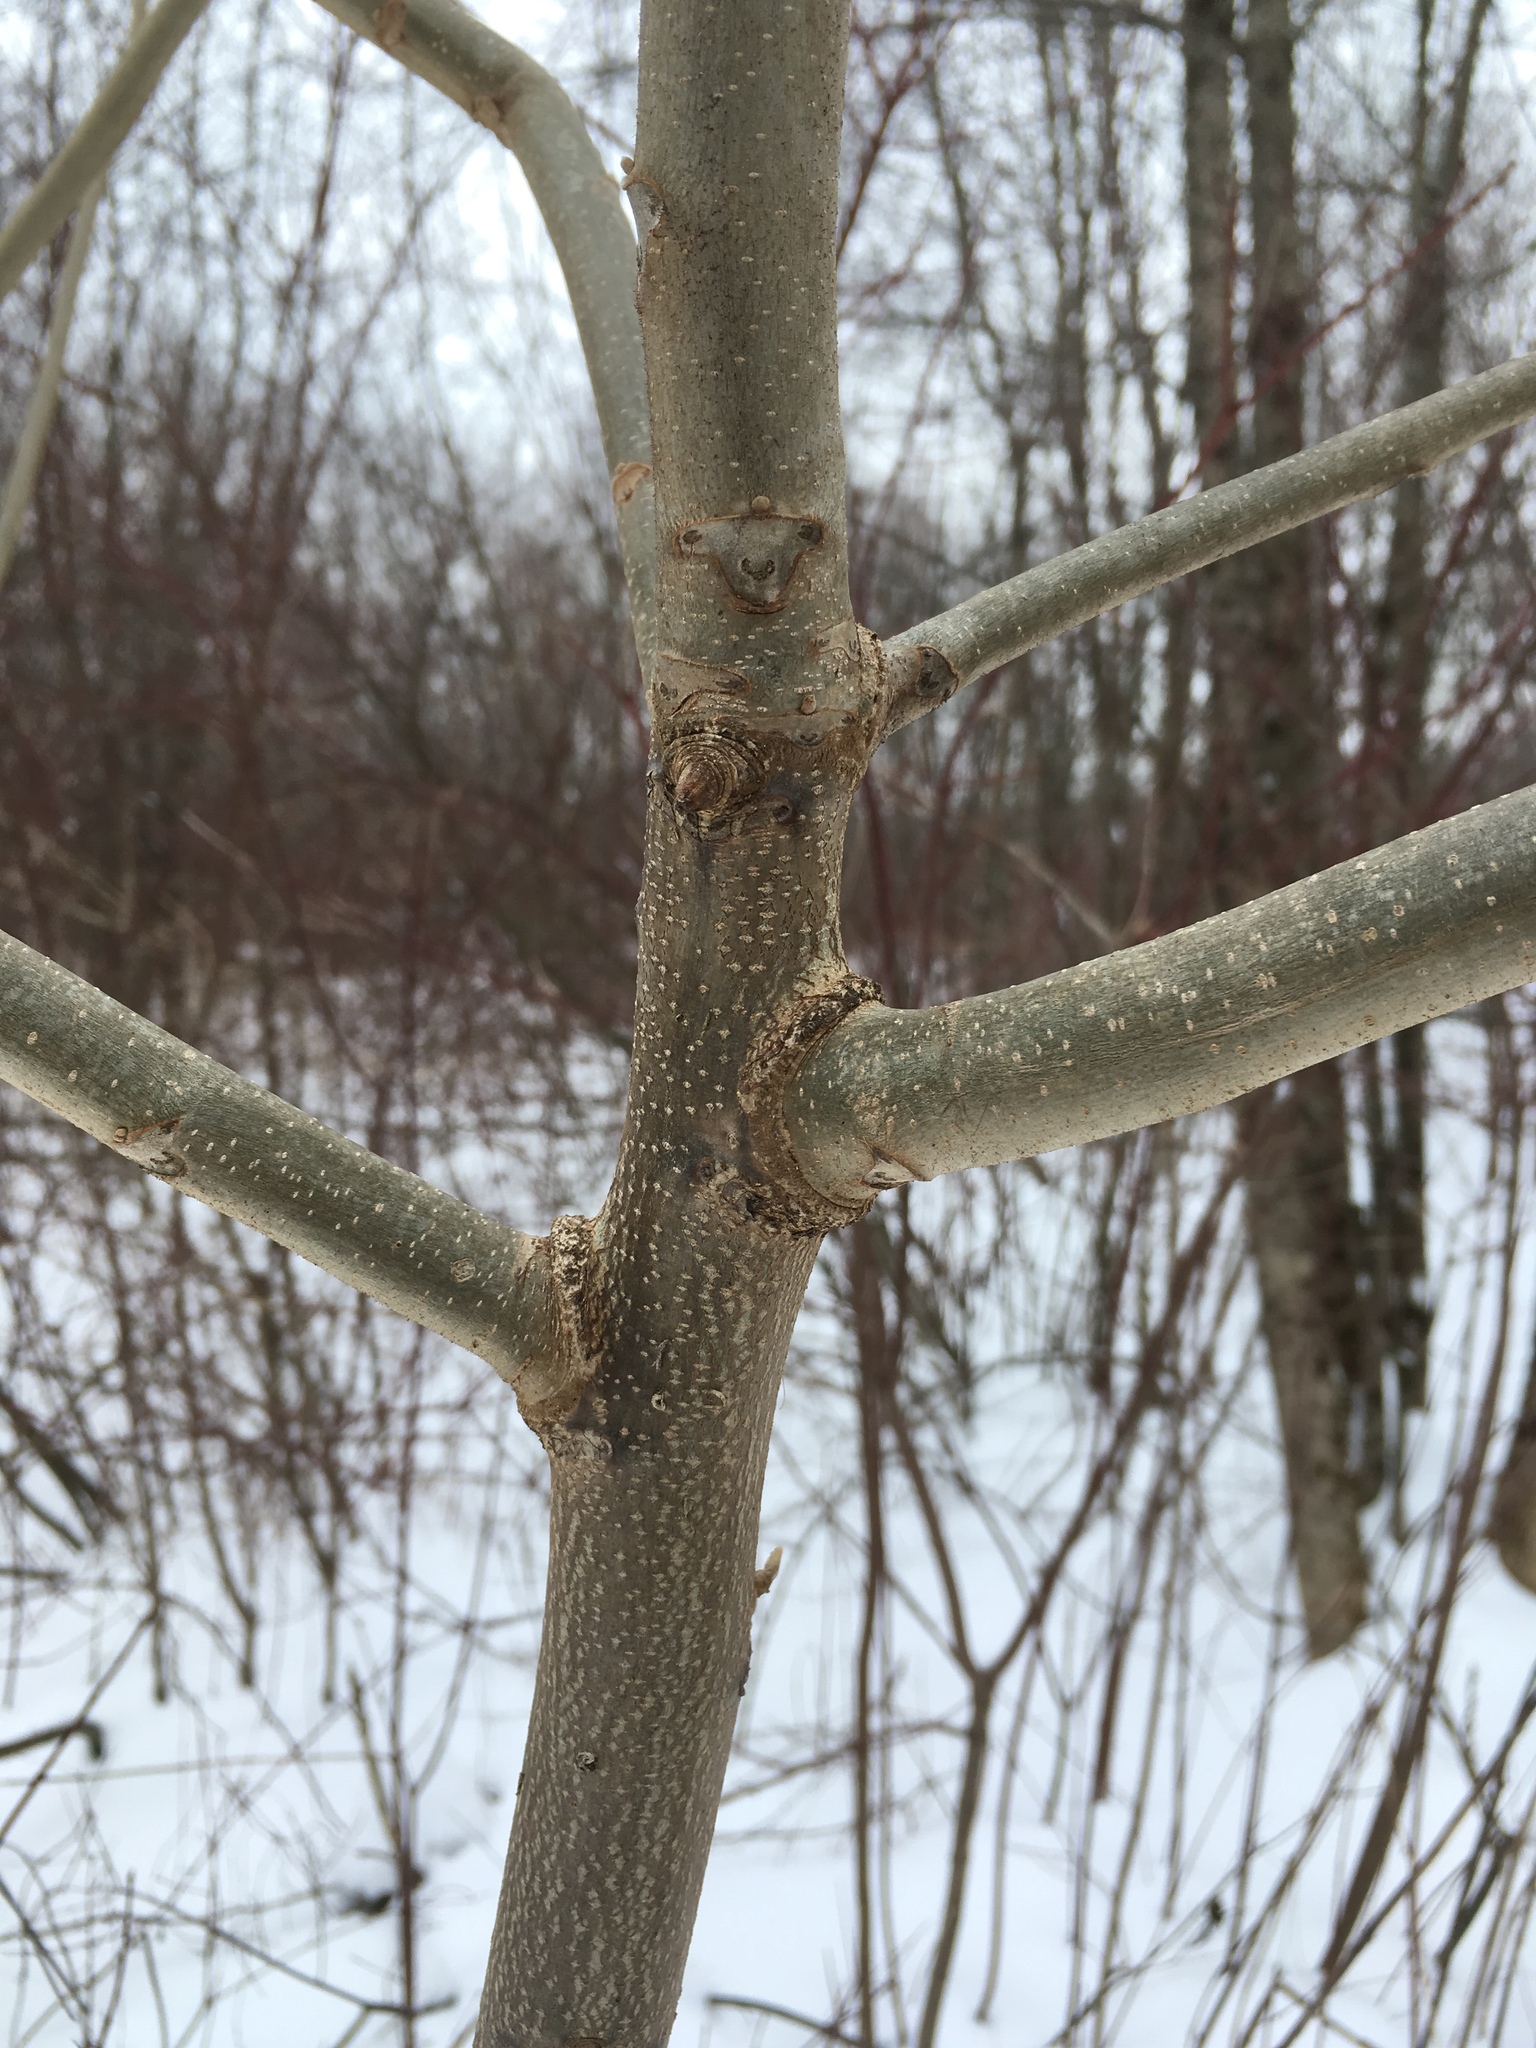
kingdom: Plantae
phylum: Tracheophyta
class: Magnoliopsida
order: Fagales
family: Juglandaceae
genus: Juglans
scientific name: Juglans cinerea
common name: Butternut
